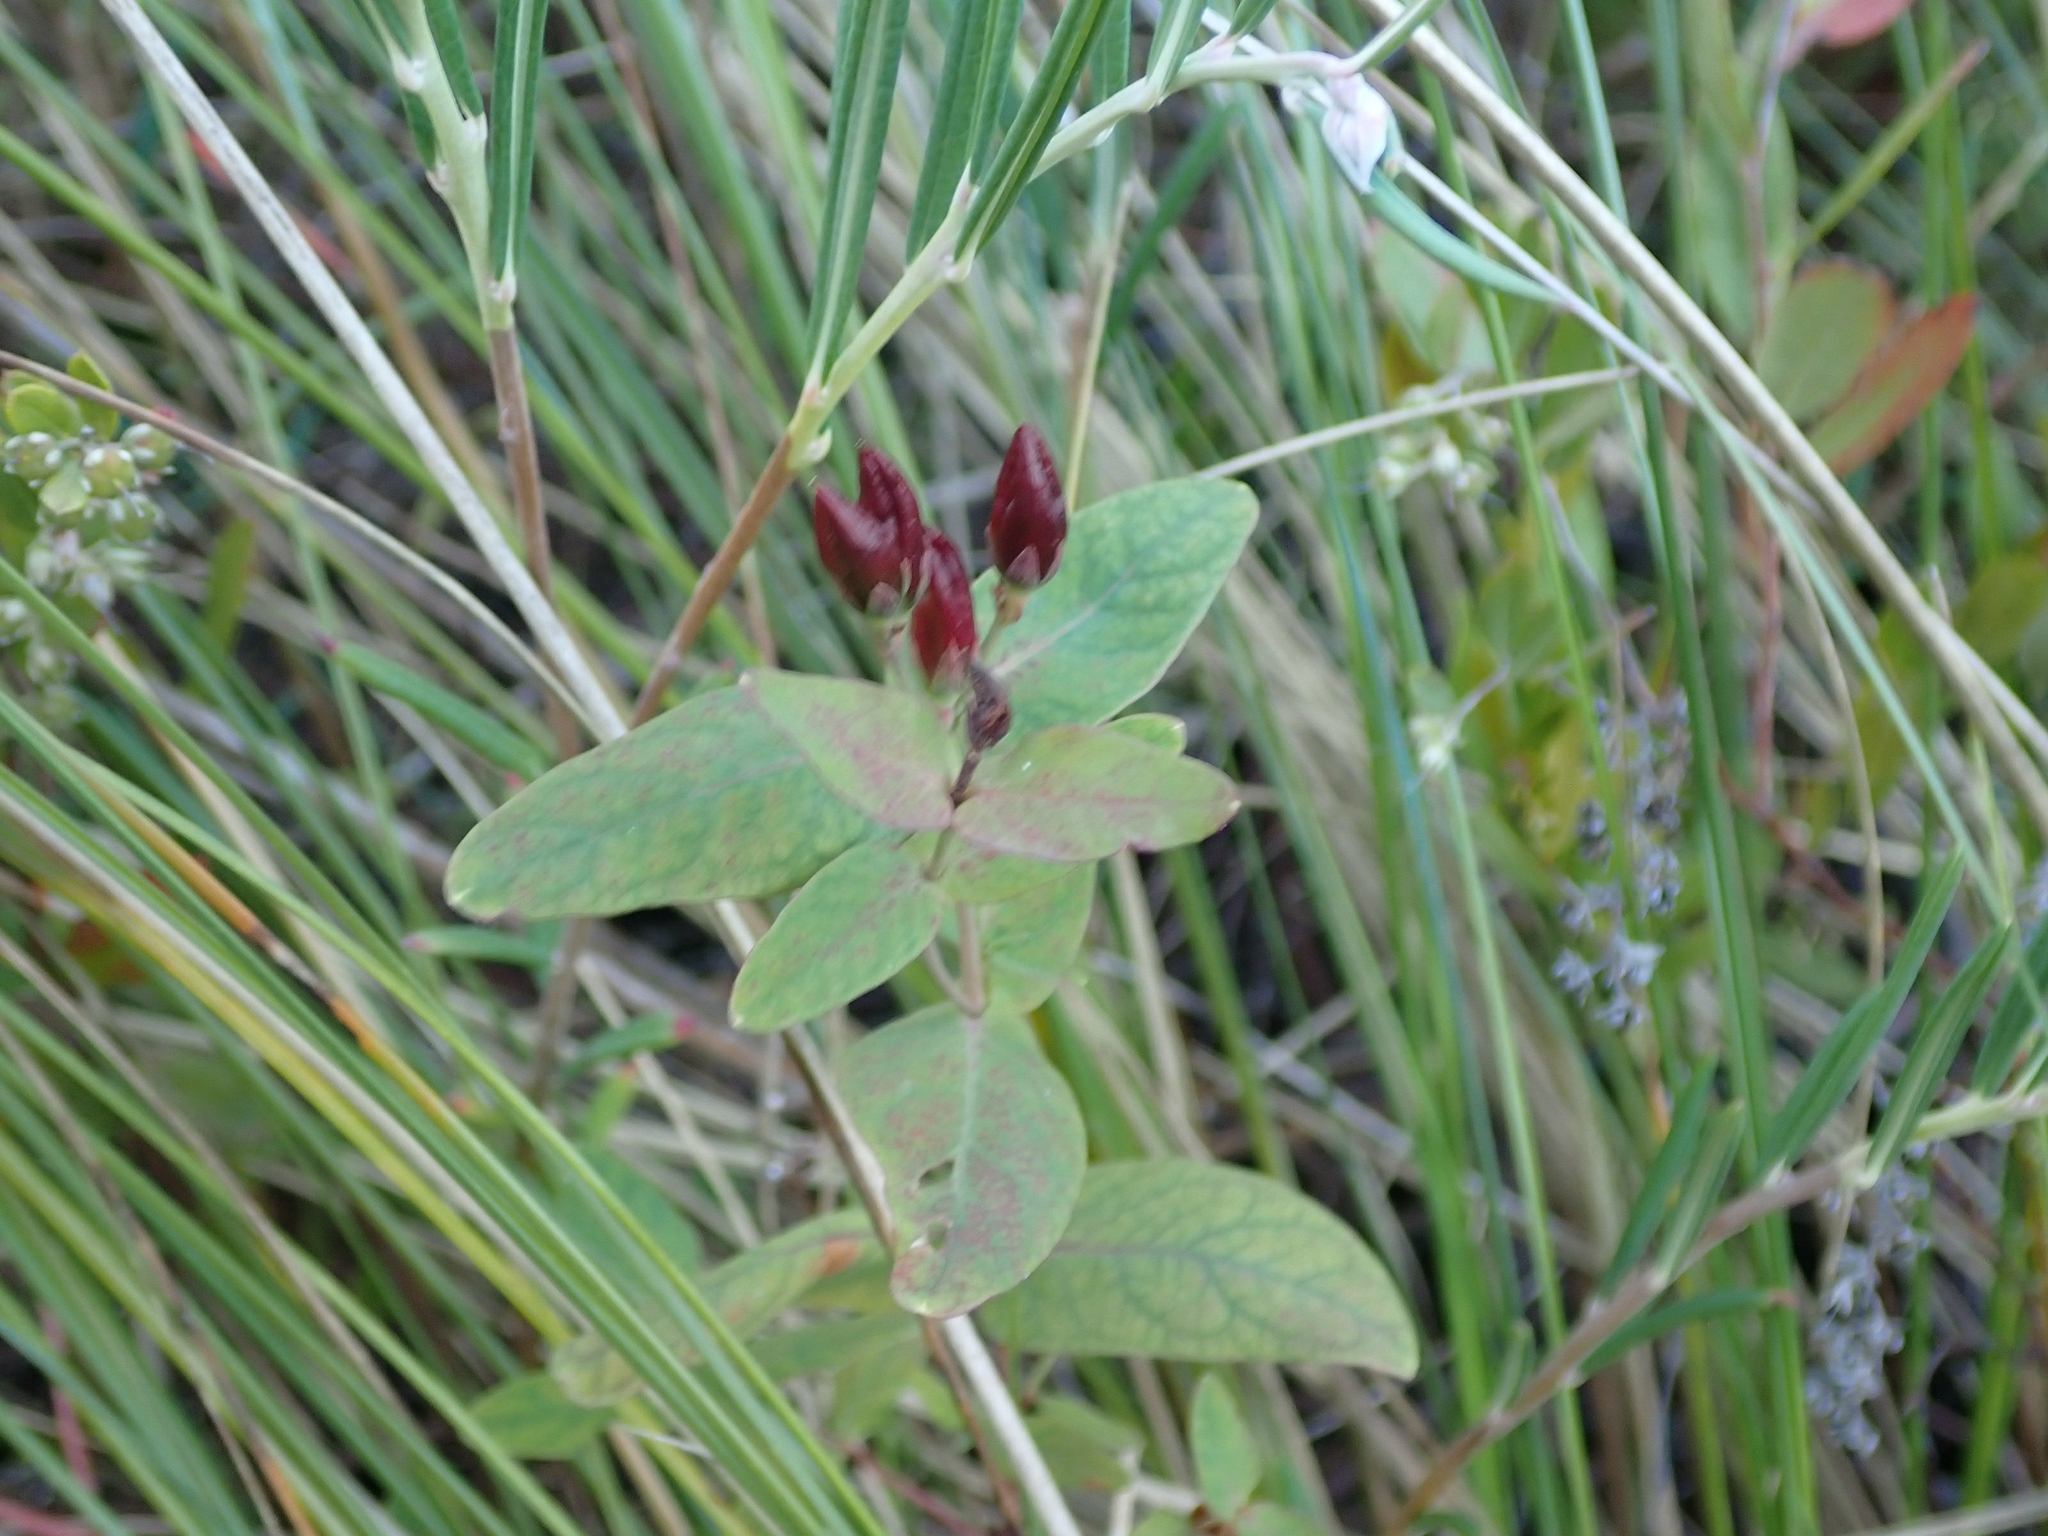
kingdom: Plantae
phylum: Tracheophyta
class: Magnoliopsida
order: Malpighiales
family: Hypericaceae
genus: Triadenum
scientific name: Triadenum fraseri
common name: Fraser's marsh st. johnswort
